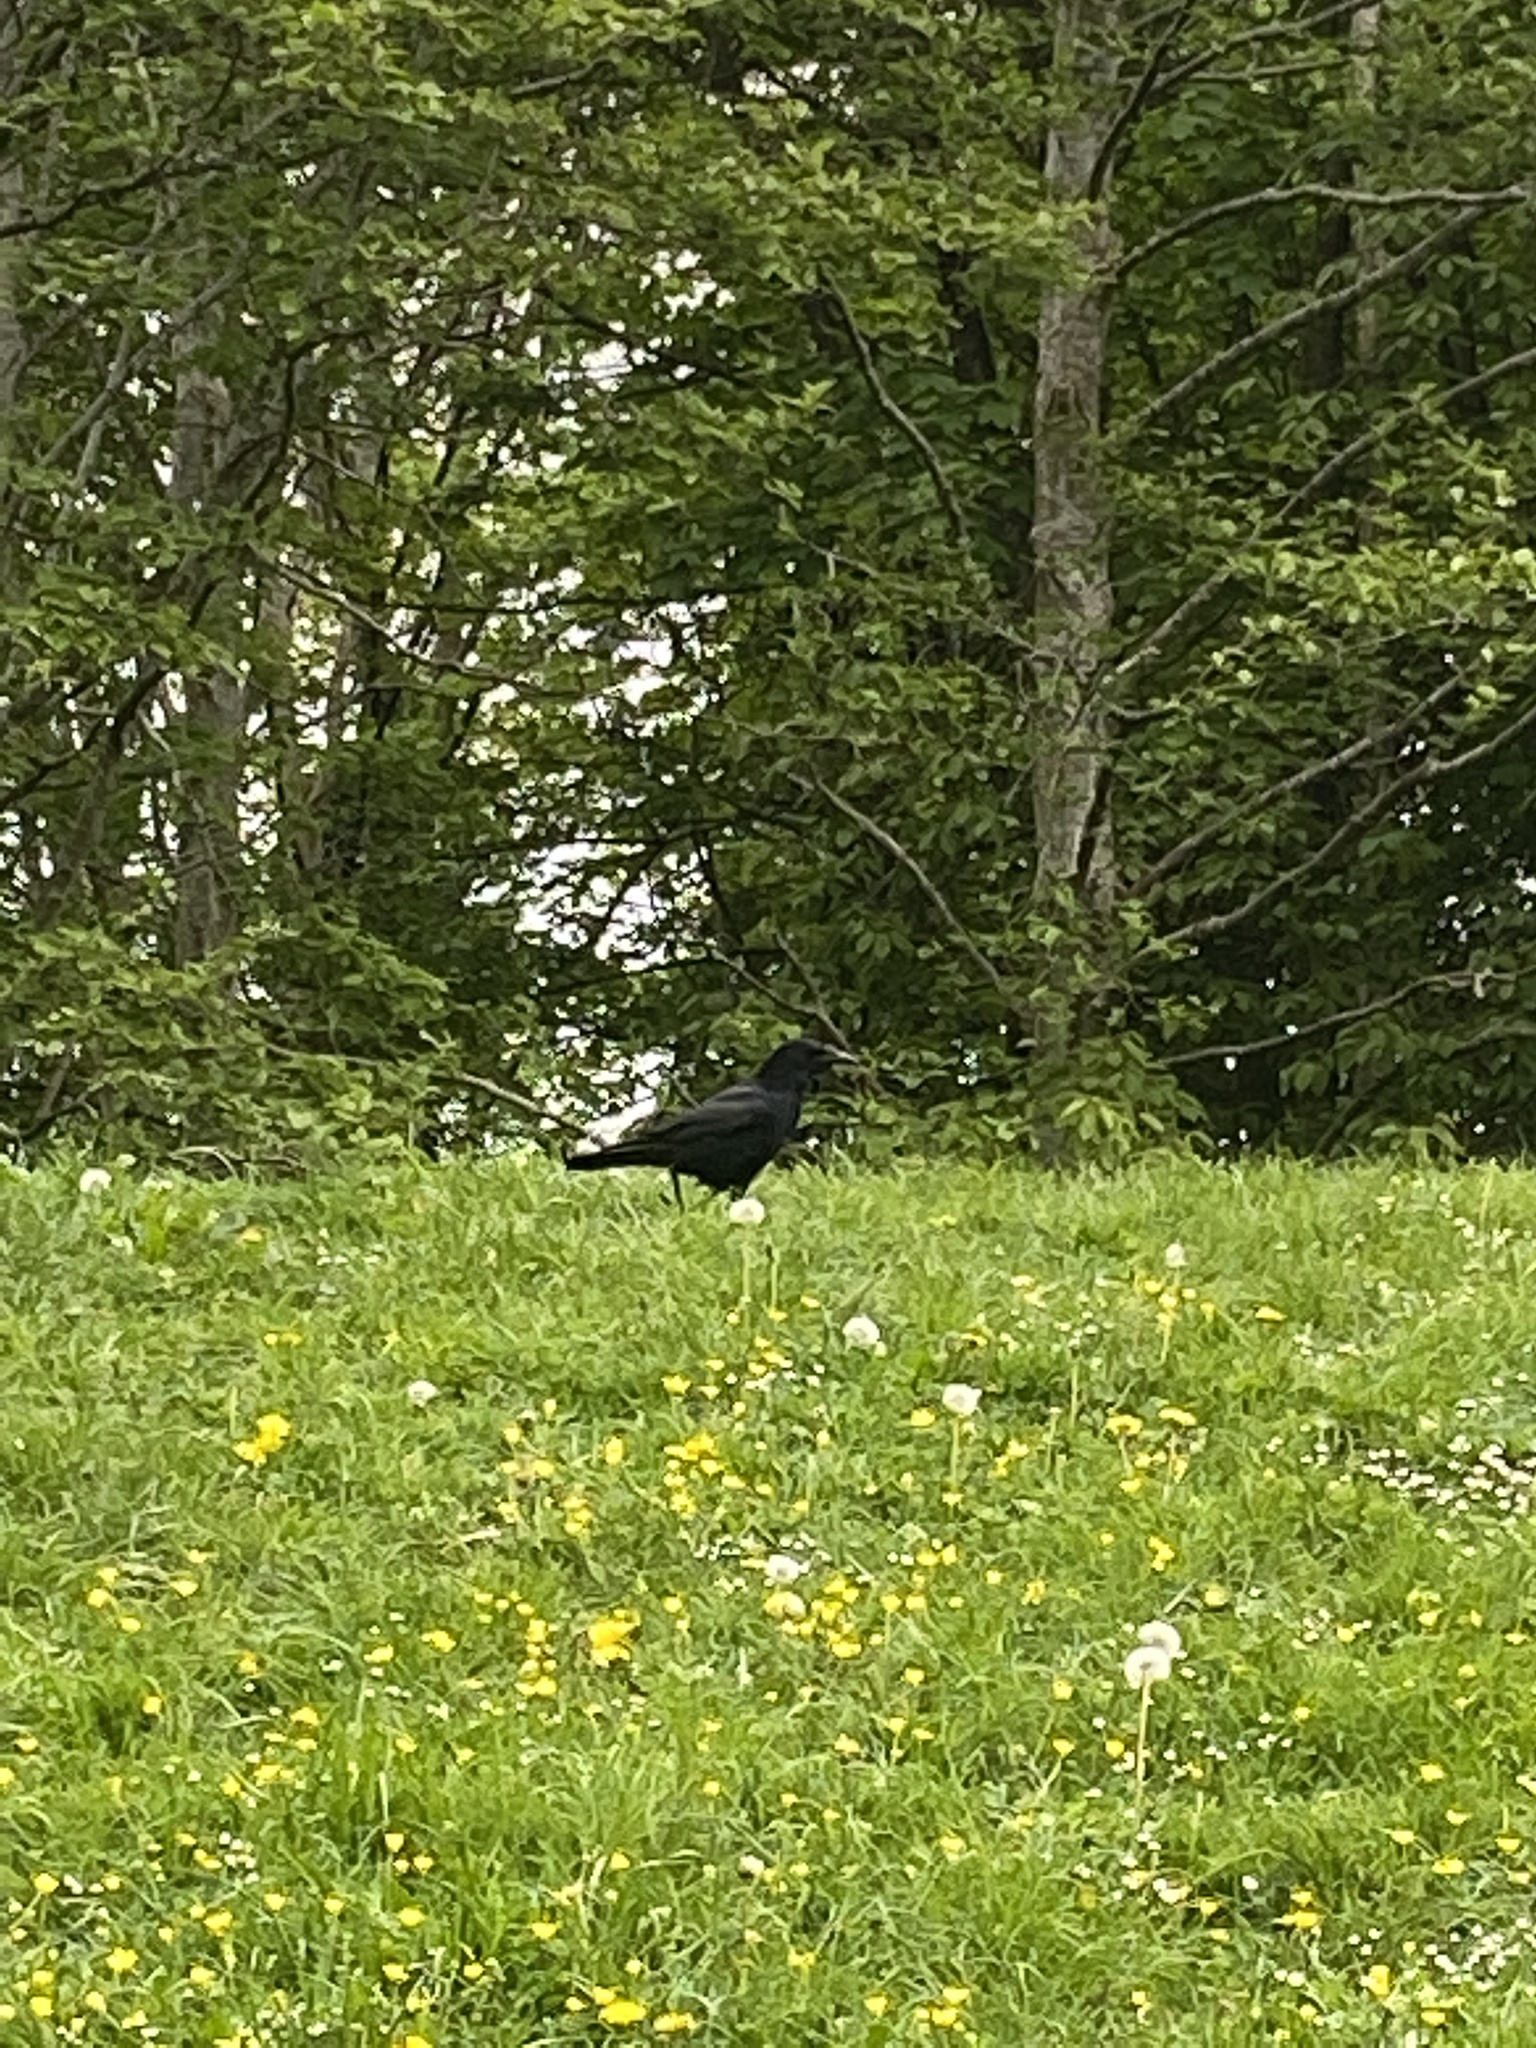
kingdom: Animalia
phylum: Chordata
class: Aves
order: Passeriformes
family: Corvidae
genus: Corvus
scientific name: Corvus corone
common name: Carrion crow
